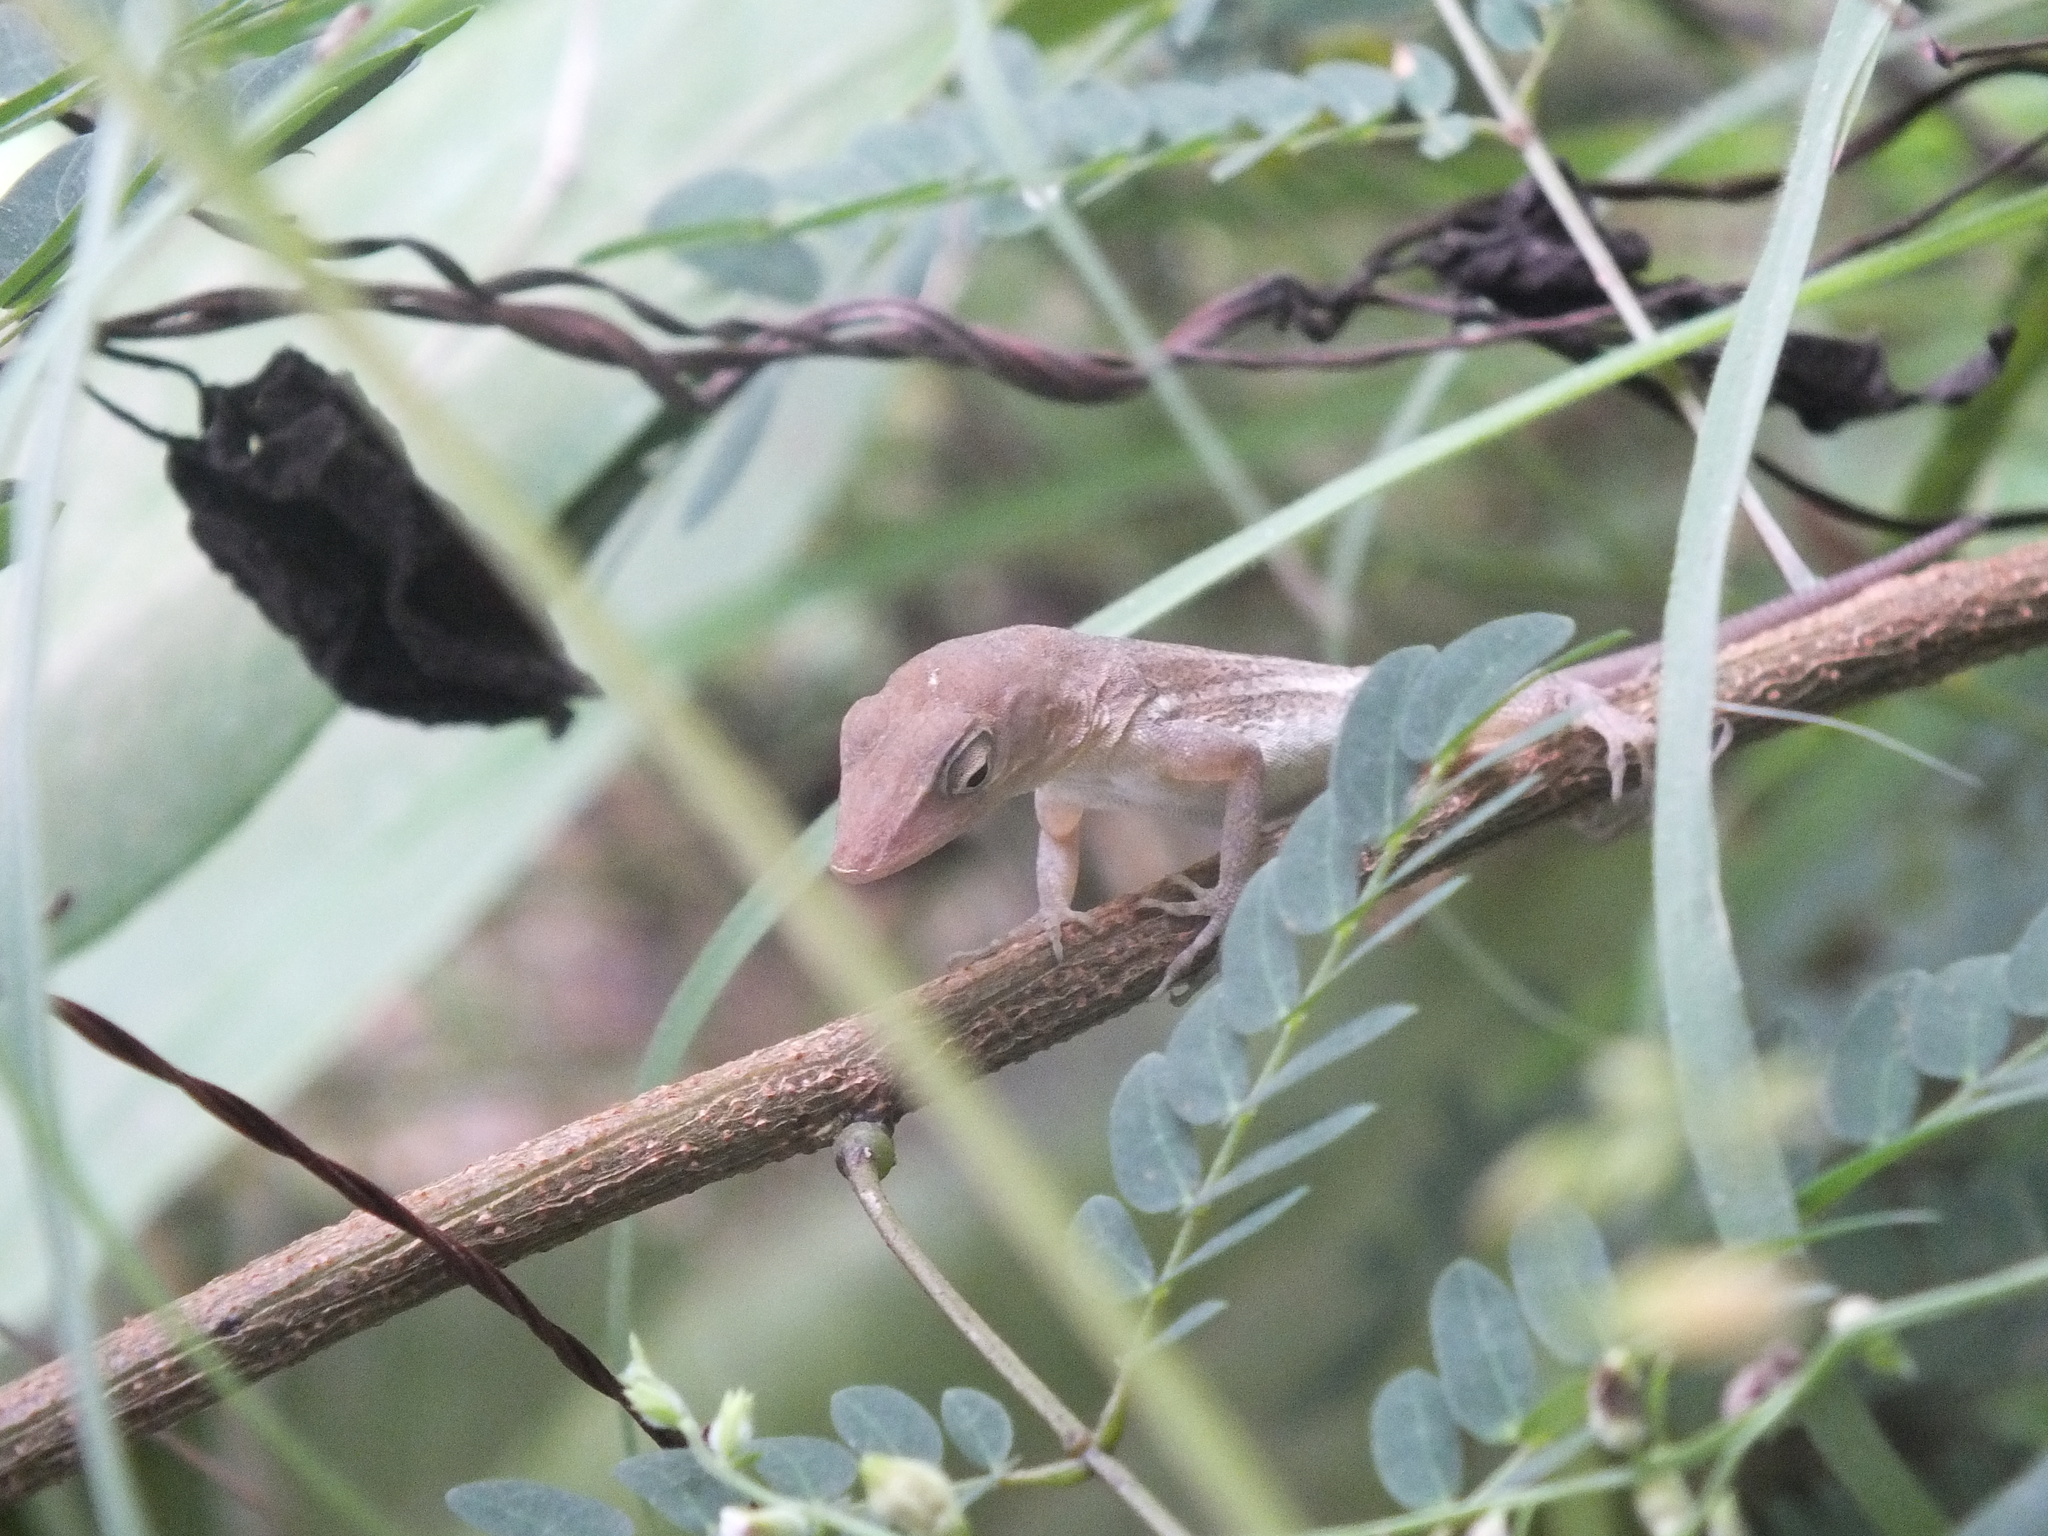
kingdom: Animalia
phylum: Chordata
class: Squamata
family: Dactyloidae
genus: Anolis
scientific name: Anolis lineatopus
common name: Stripefoot anole
